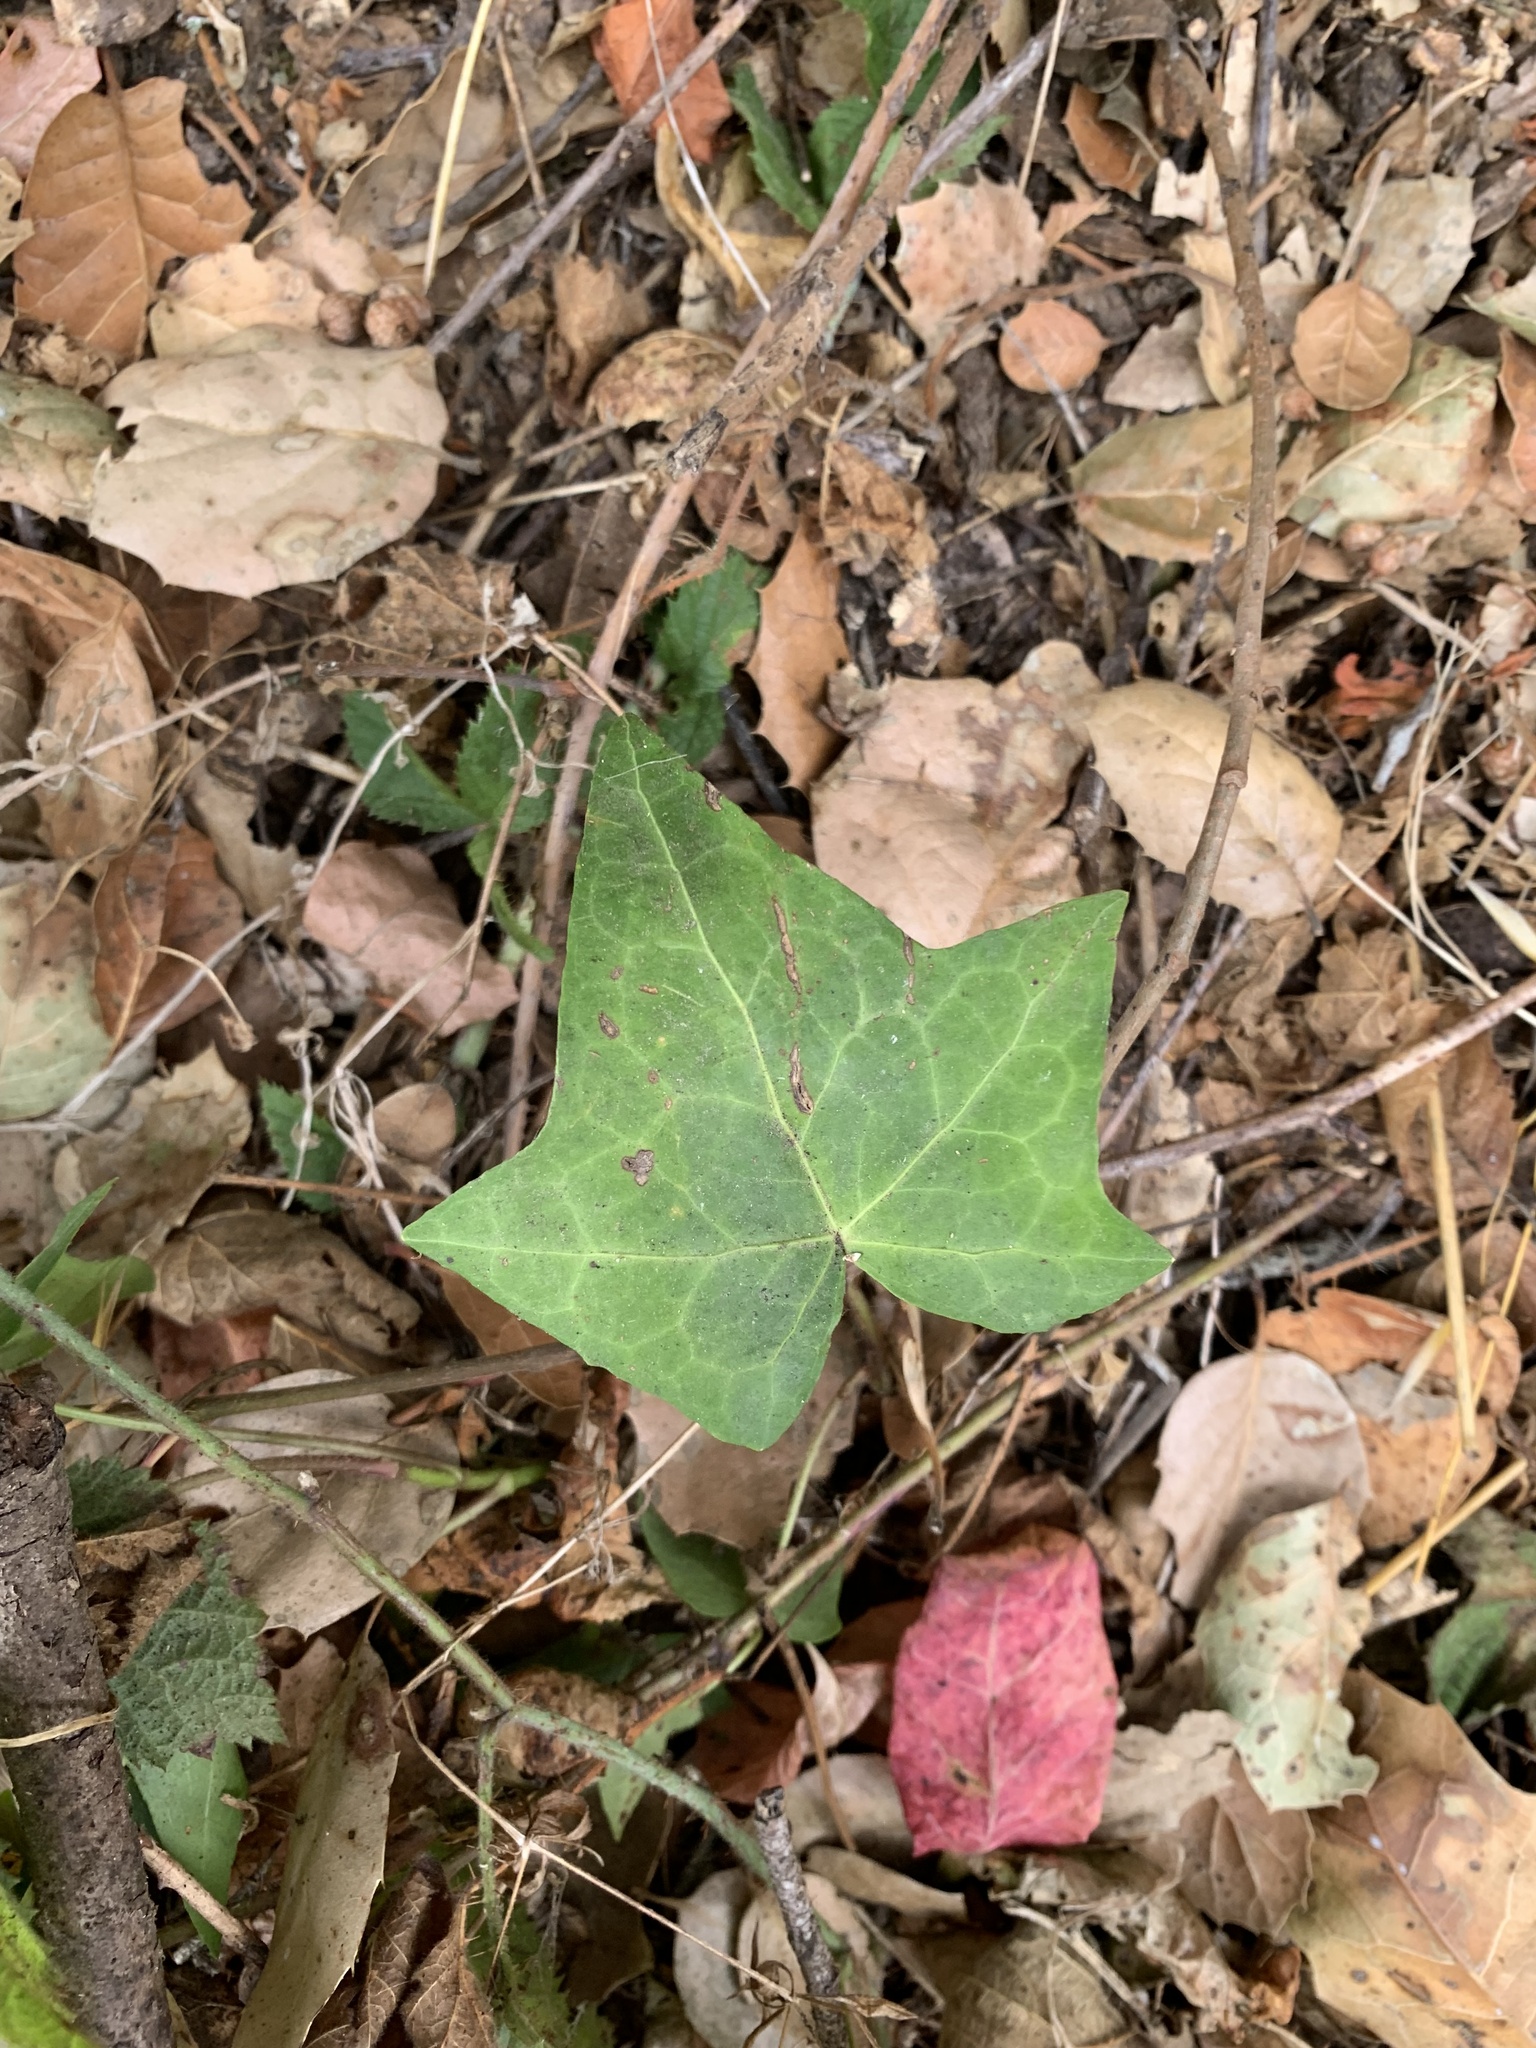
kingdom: Plantae
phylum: Tracheophyta
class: Magnoliopsida
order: Apiales
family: Araliaceae
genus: Hedera
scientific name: Hedera helix
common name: Ivy
